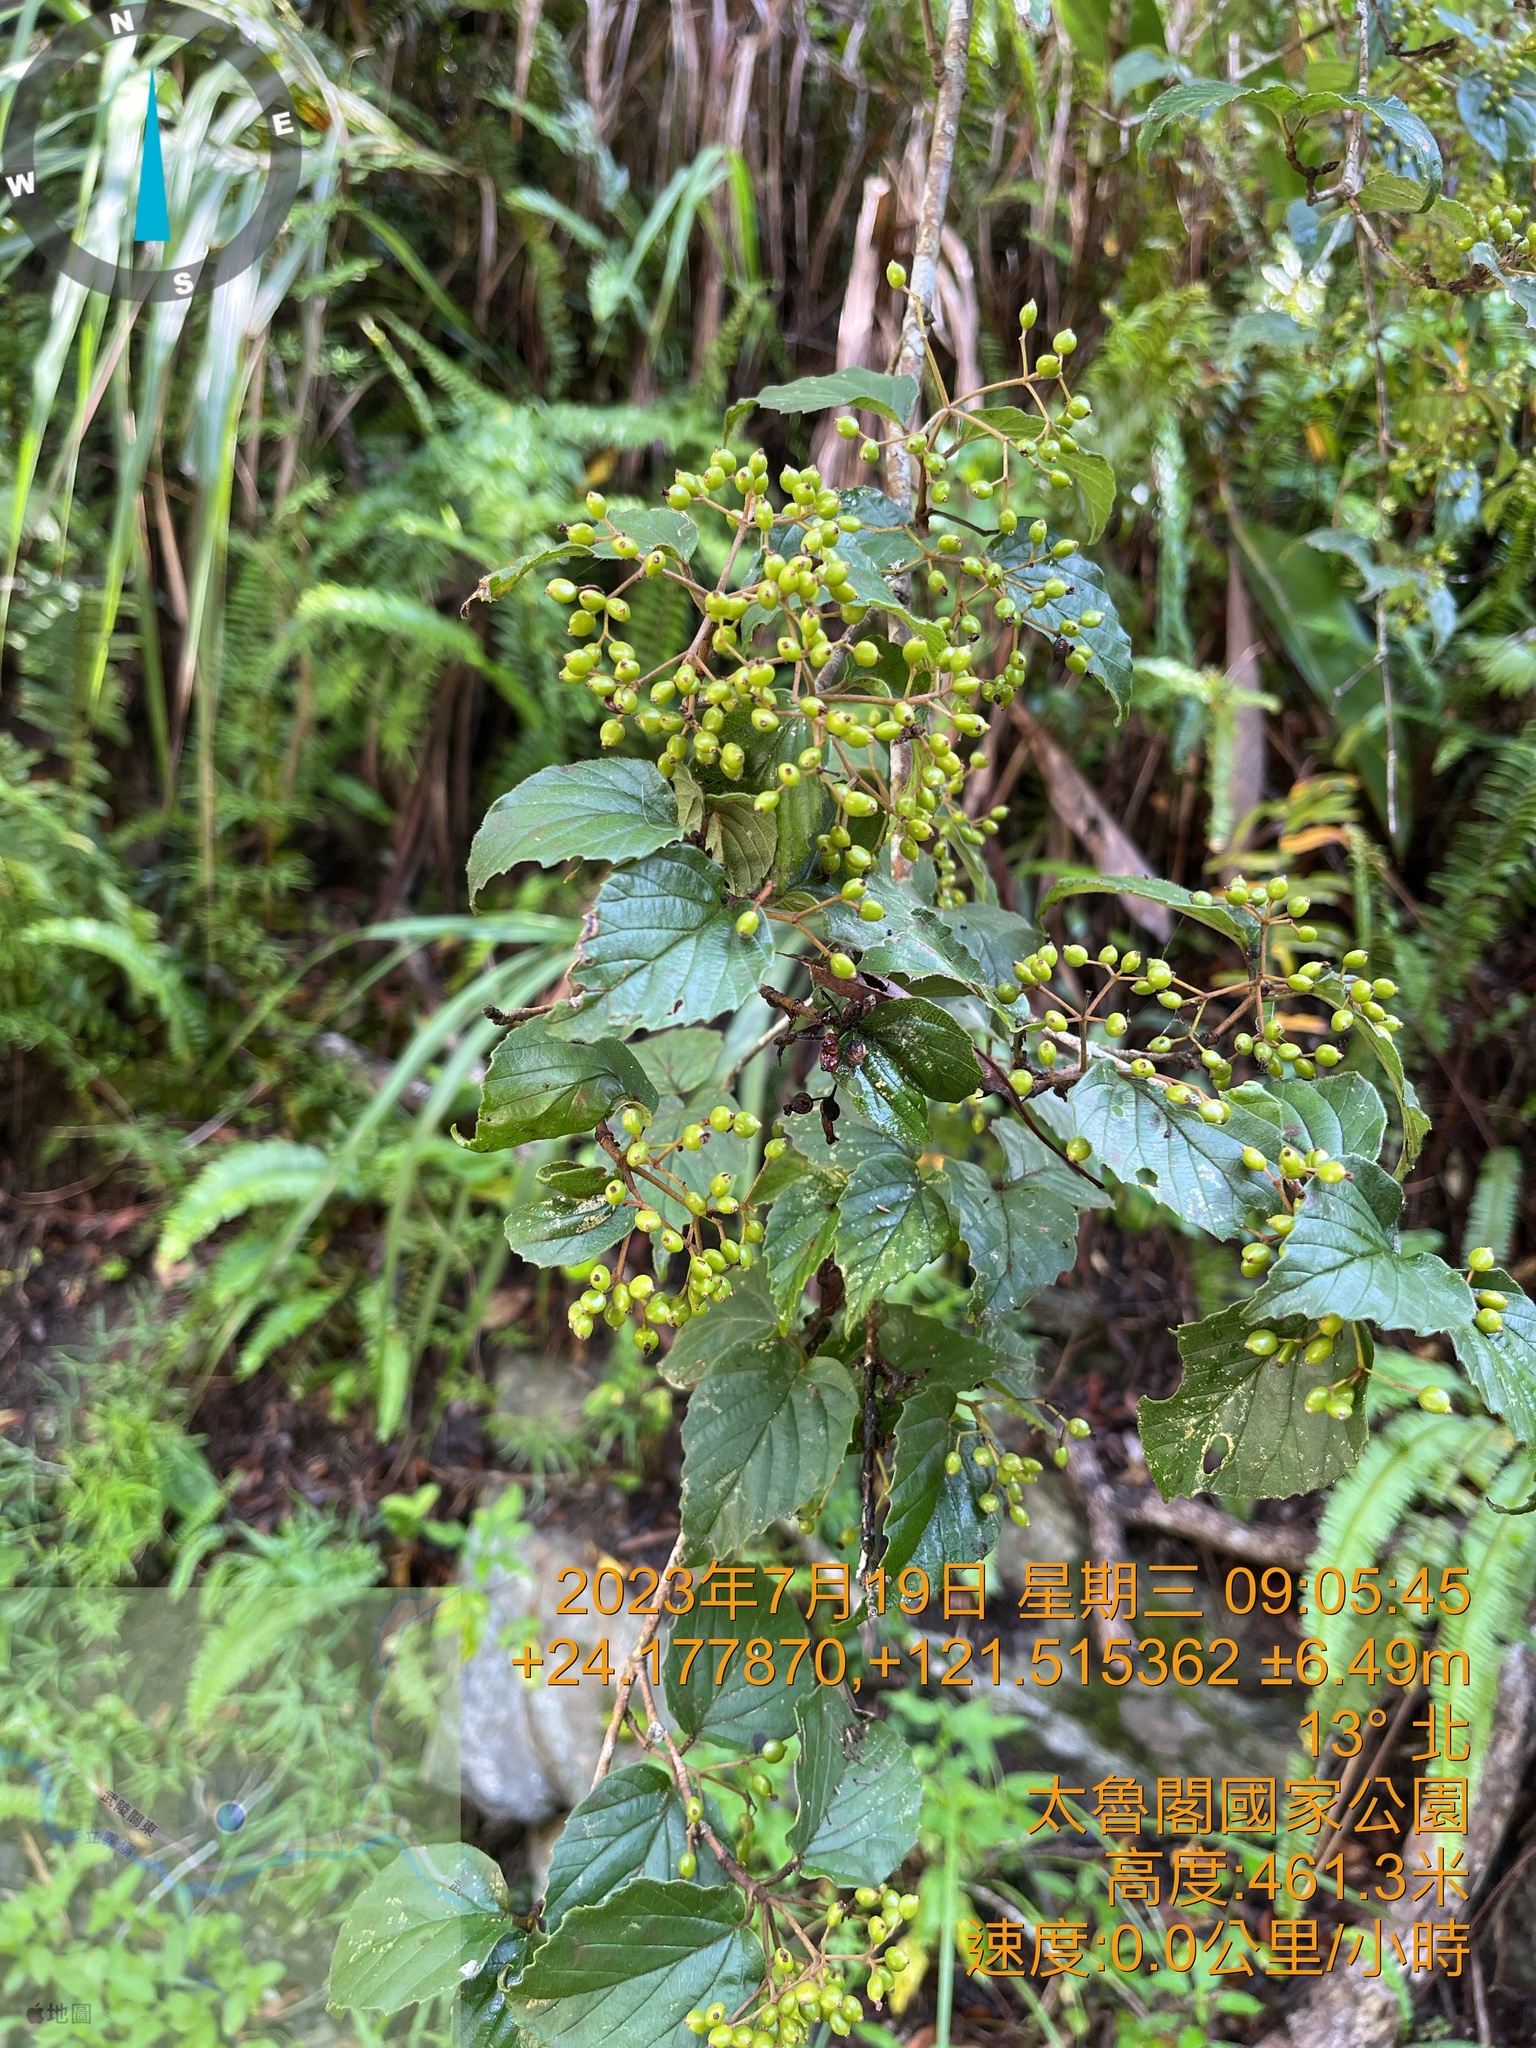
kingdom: Plantae
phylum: Tracheophyta
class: Magnoliopsida
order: Dipsacales
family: Viburnaceae
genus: Viburnum
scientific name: Viburnum luzonicum
